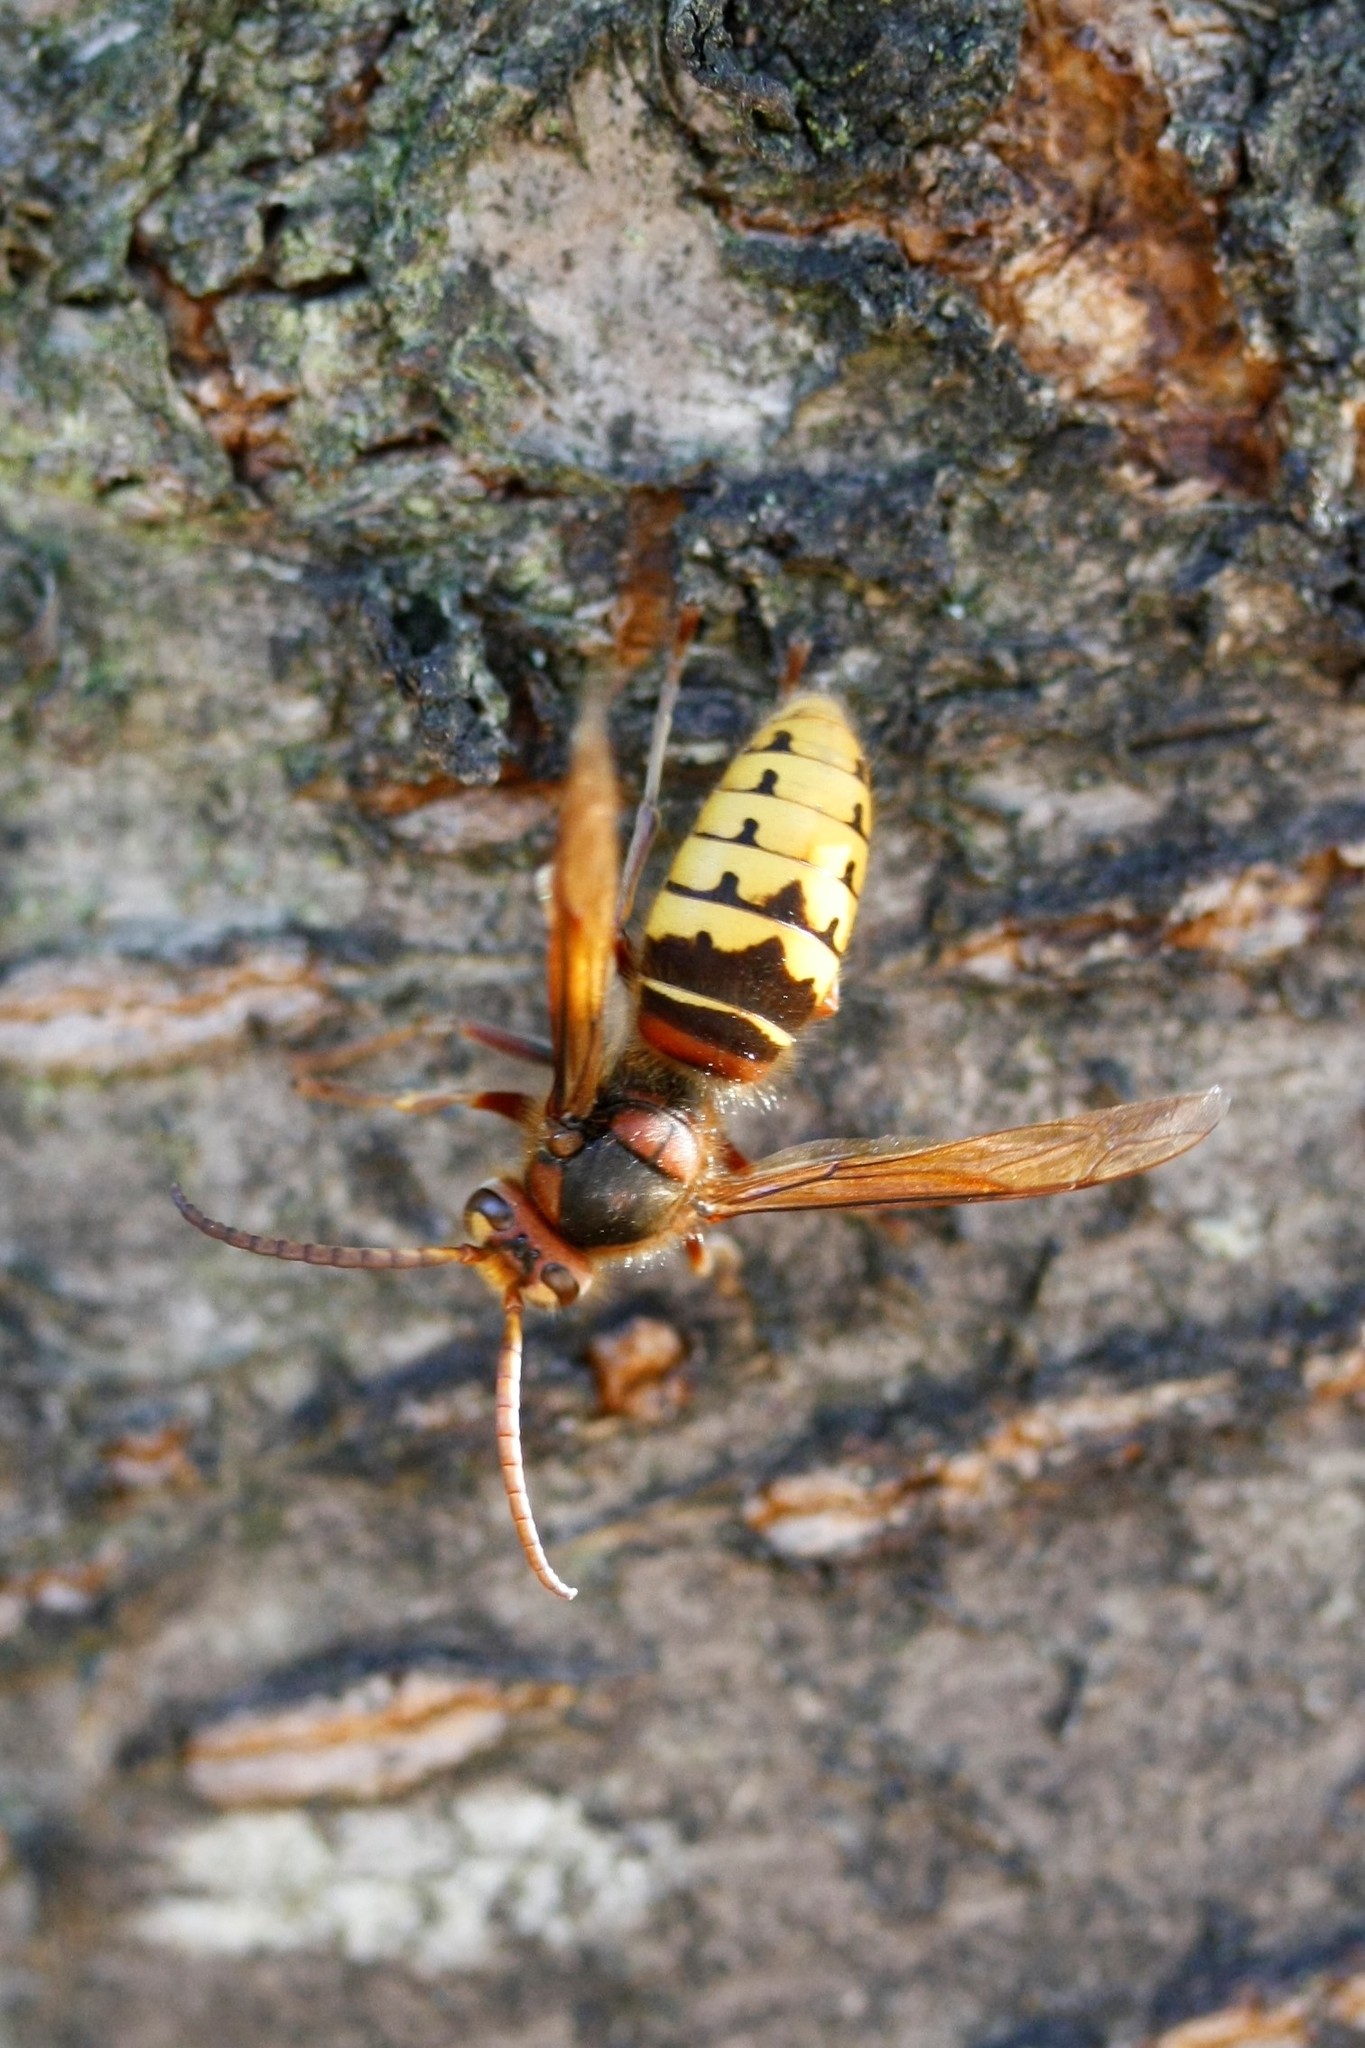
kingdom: Animalia
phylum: Arthropoda
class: Insecta
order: Hymenoptera
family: Vespidae
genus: Vespa
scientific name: Vespa crabro
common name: Hornet
